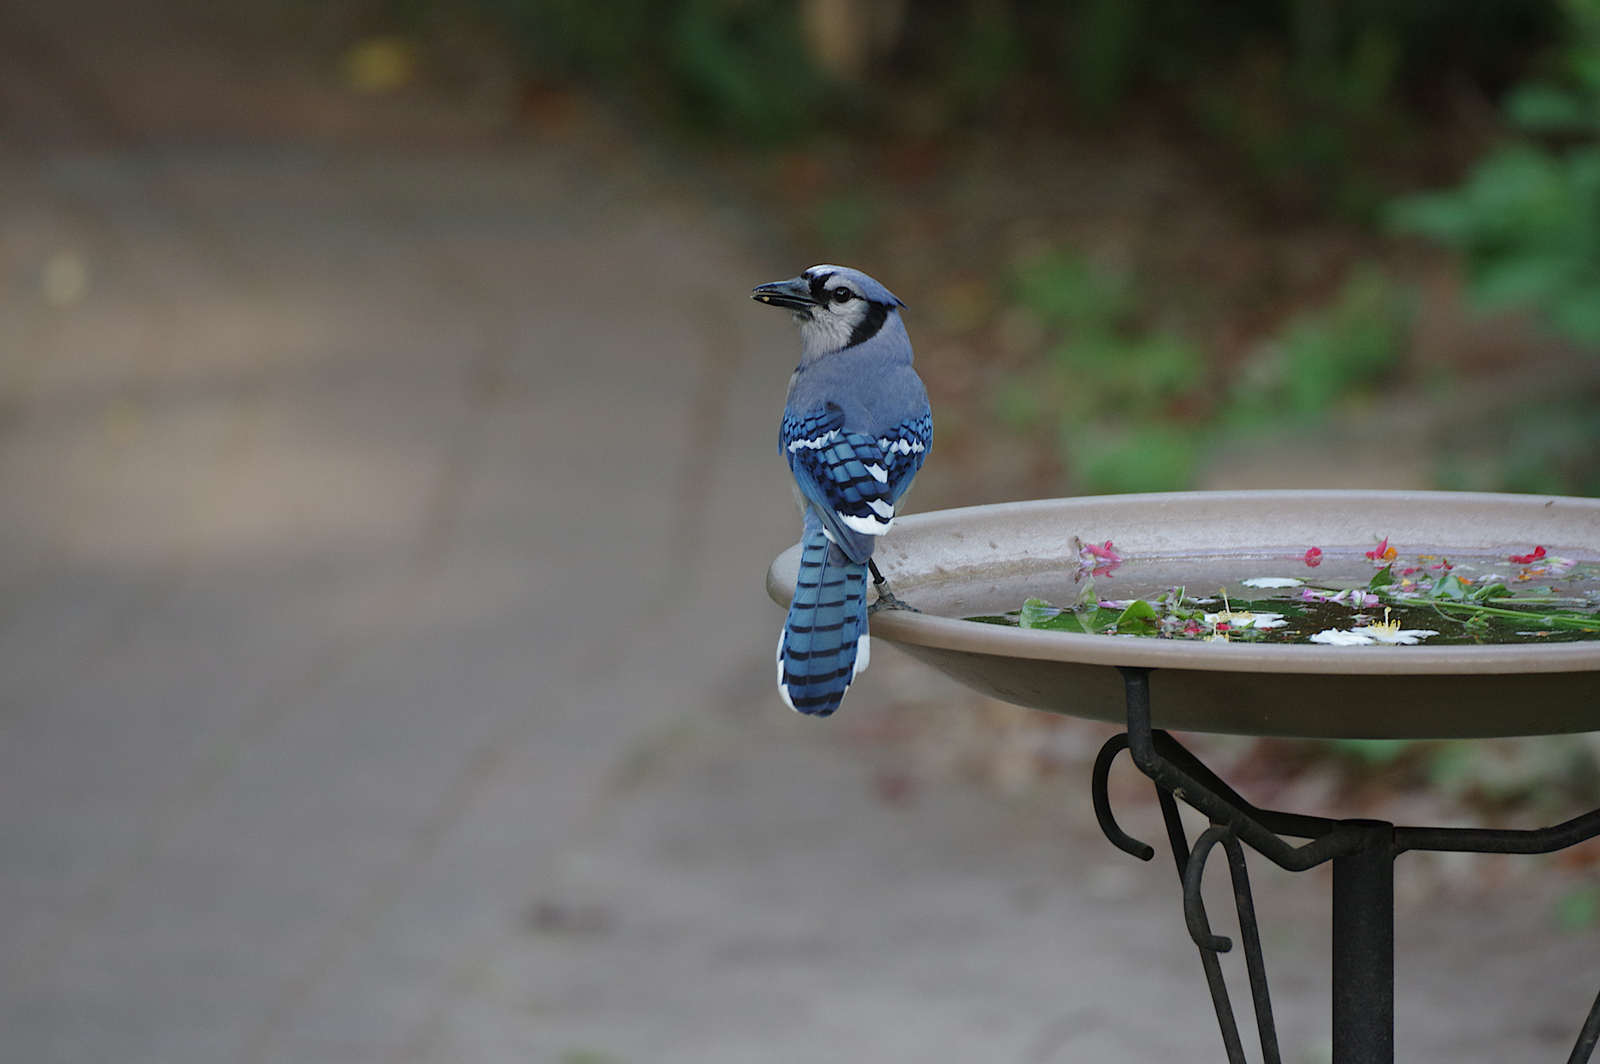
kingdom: Animalia
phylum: Chordata
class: Aves
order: Passeriformes
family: Corvidae
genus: Cyanocitta
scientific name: Cyanocitta cristata
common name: Blue jay
